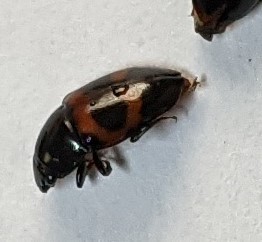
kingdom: Animalia
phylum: Arthropoda
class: Insecta
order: Coleoptera
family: Nitidulidae
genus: Glischrochilus
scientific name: Glischrochilus sanguinolentus
